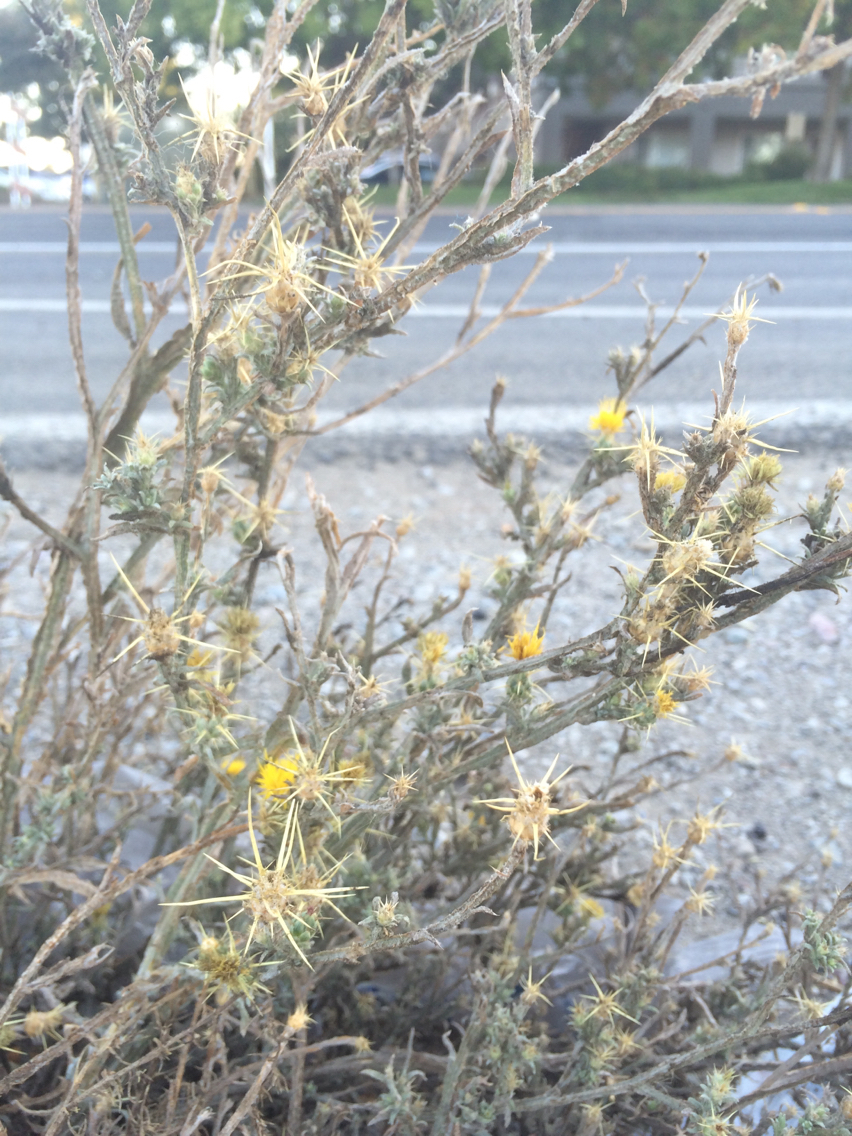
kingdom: Plantae
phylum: Tracheophyta
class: Magnoliopsida
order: Asterales
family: Asteraceae
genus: Centaurea
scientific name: Centaurea solstitialis
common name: Yellow star-thistle
